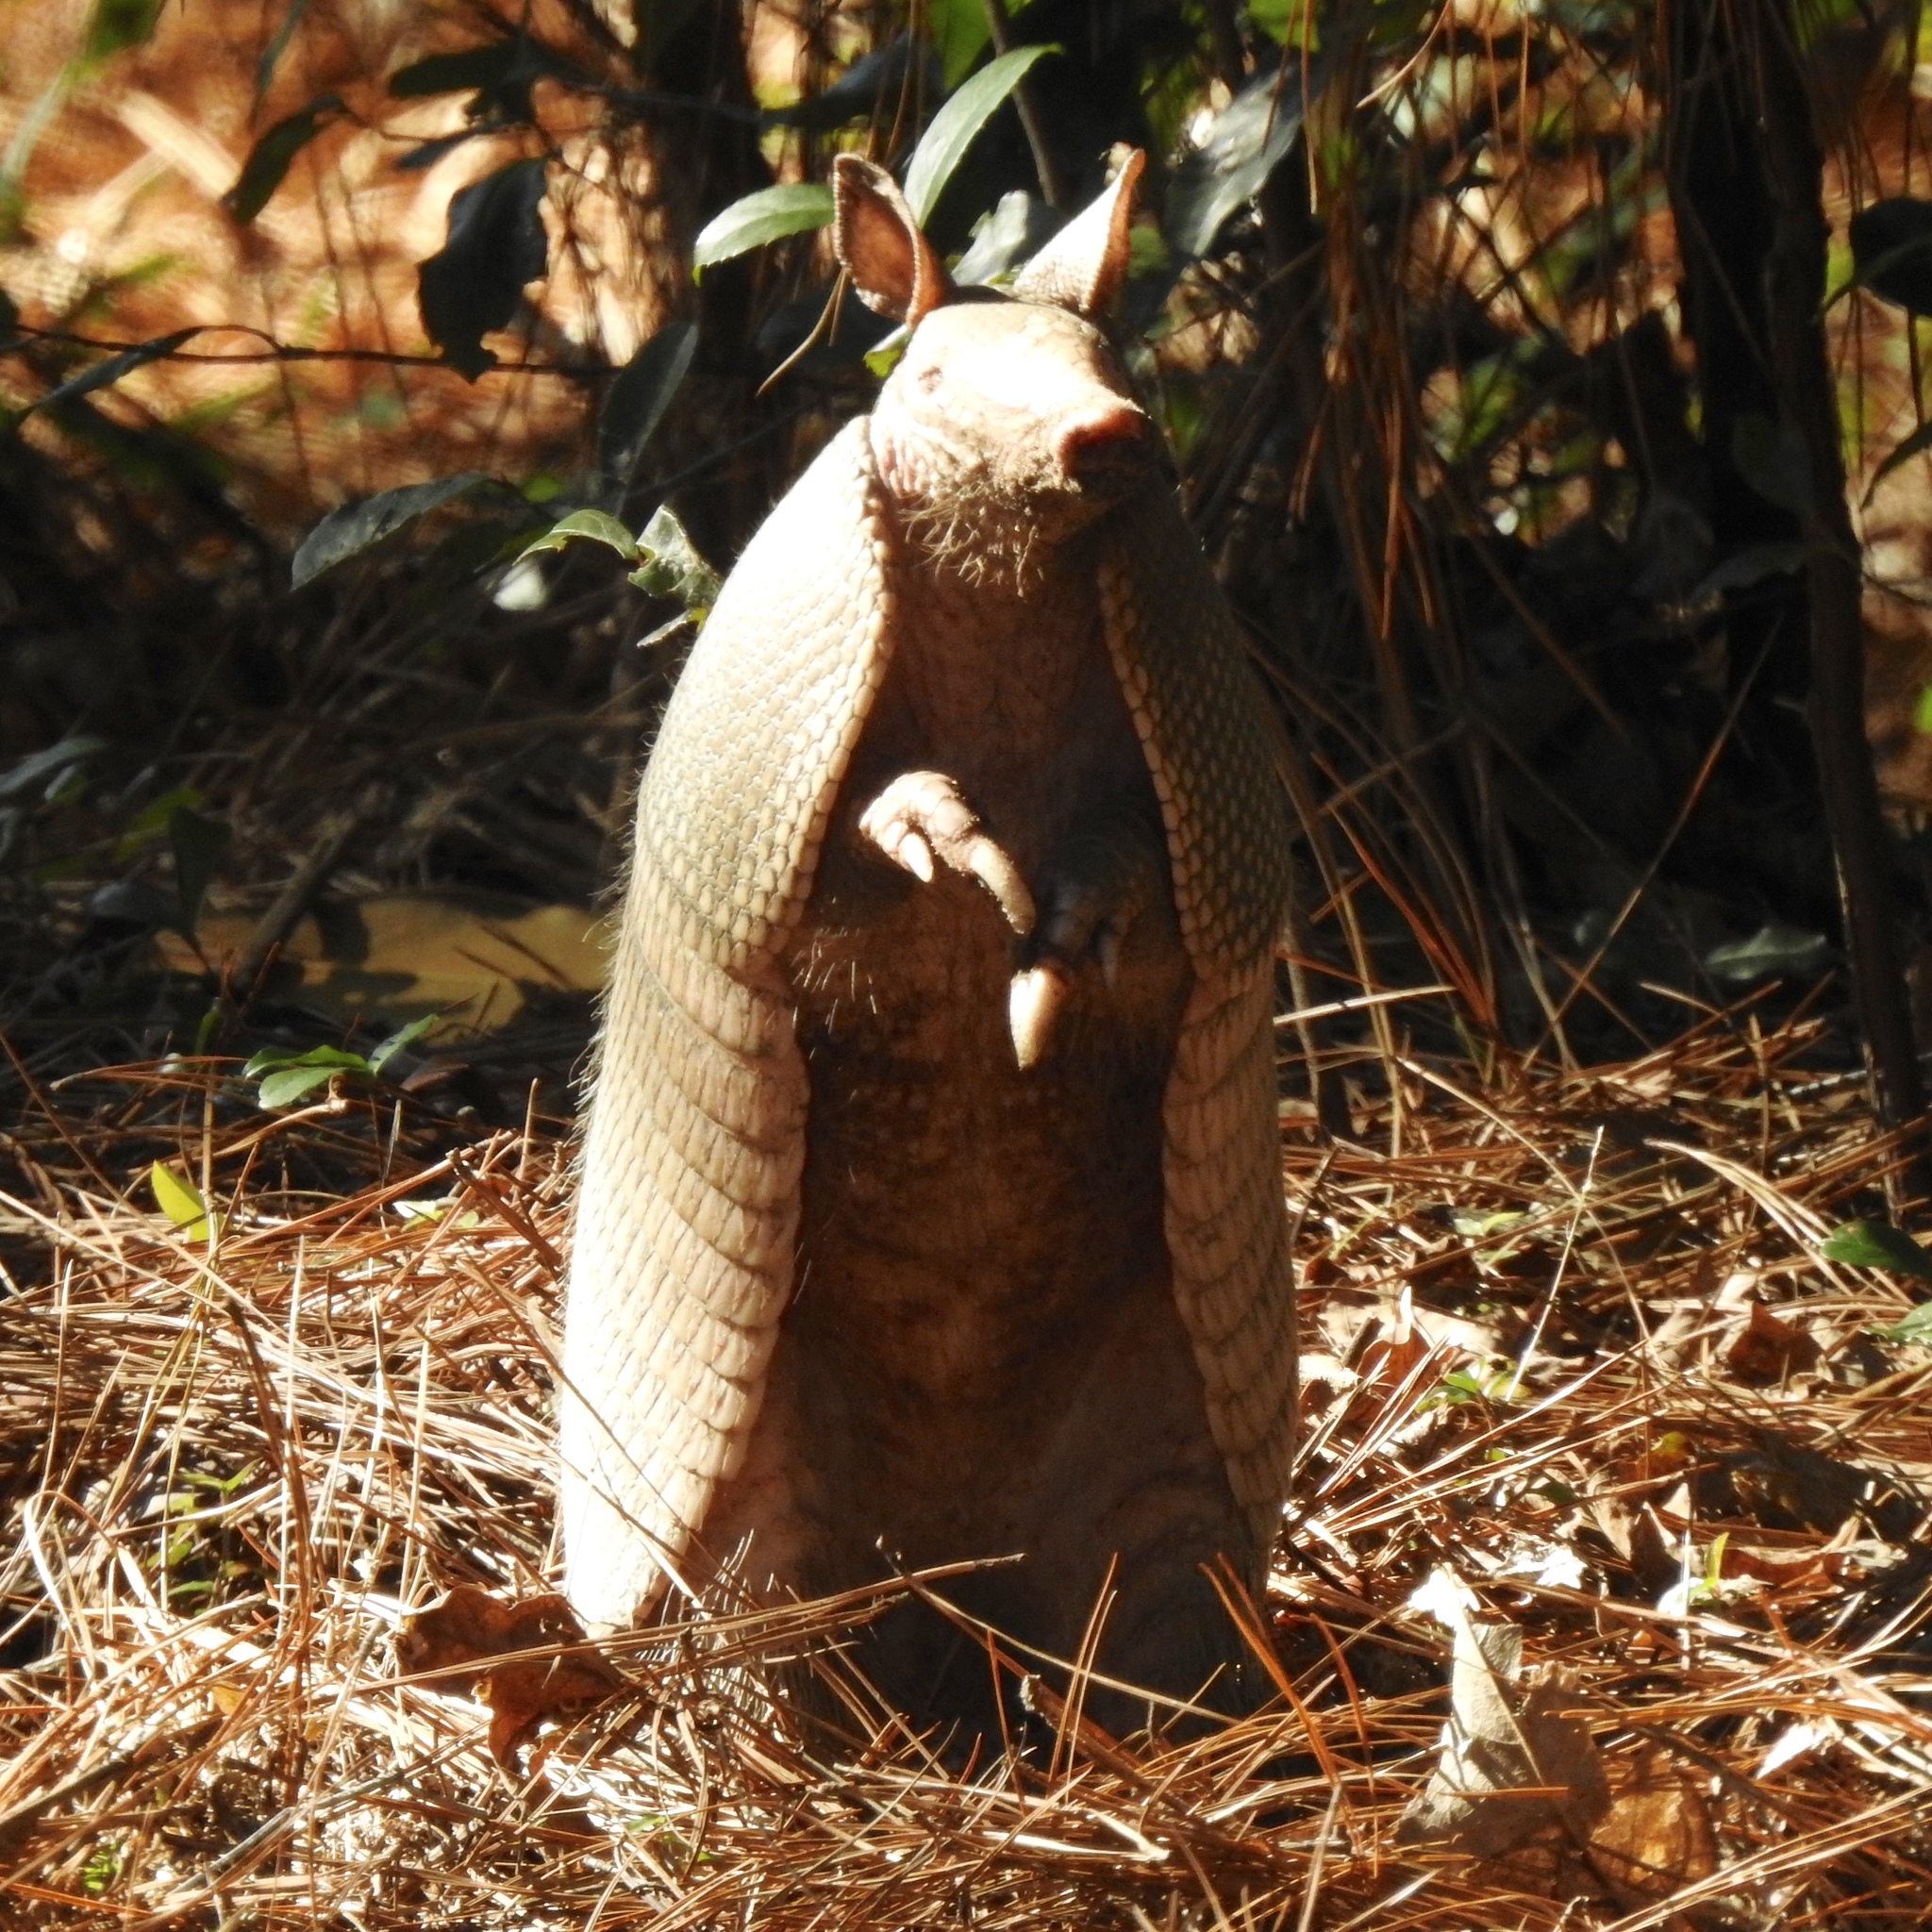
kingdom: Animalia
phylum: Chordata
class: Mammalia
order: Cingulata
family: Dasypodidae
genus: Dasypus
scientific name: Dasypus novemcinctus
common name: Nine-banded armadillo
